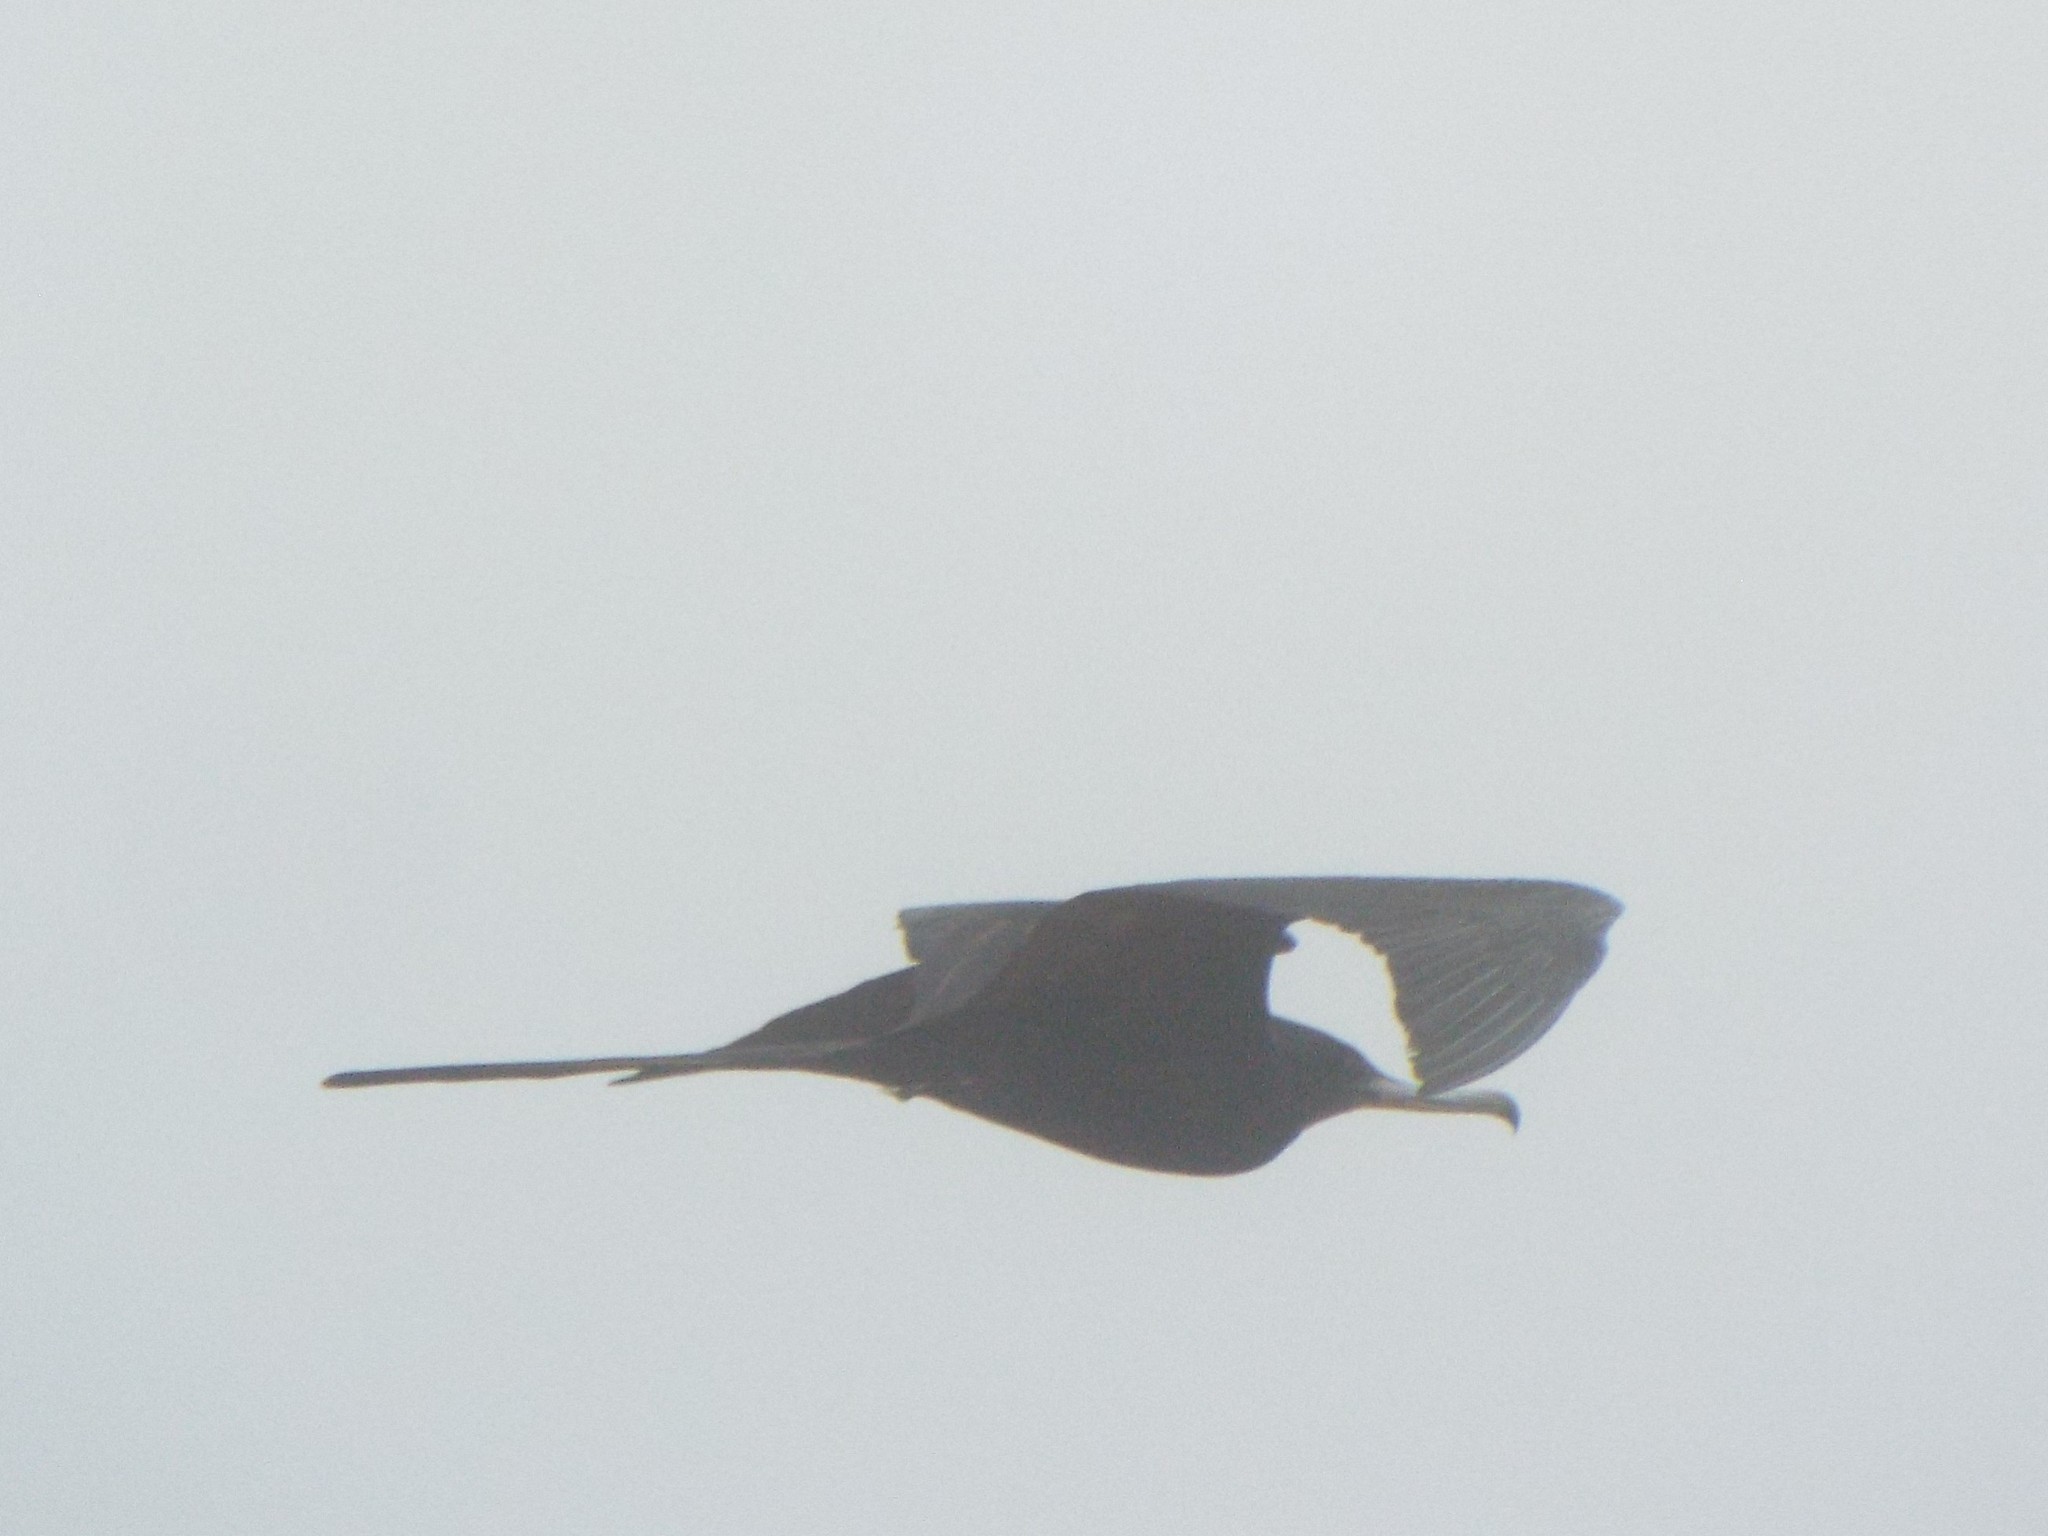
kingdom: Animalia
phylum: Chordata
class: Aves
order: Suliformes
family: Fregatidae
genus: Fregata
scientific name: Fregata magnificens
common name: Magnificent frigatebird
